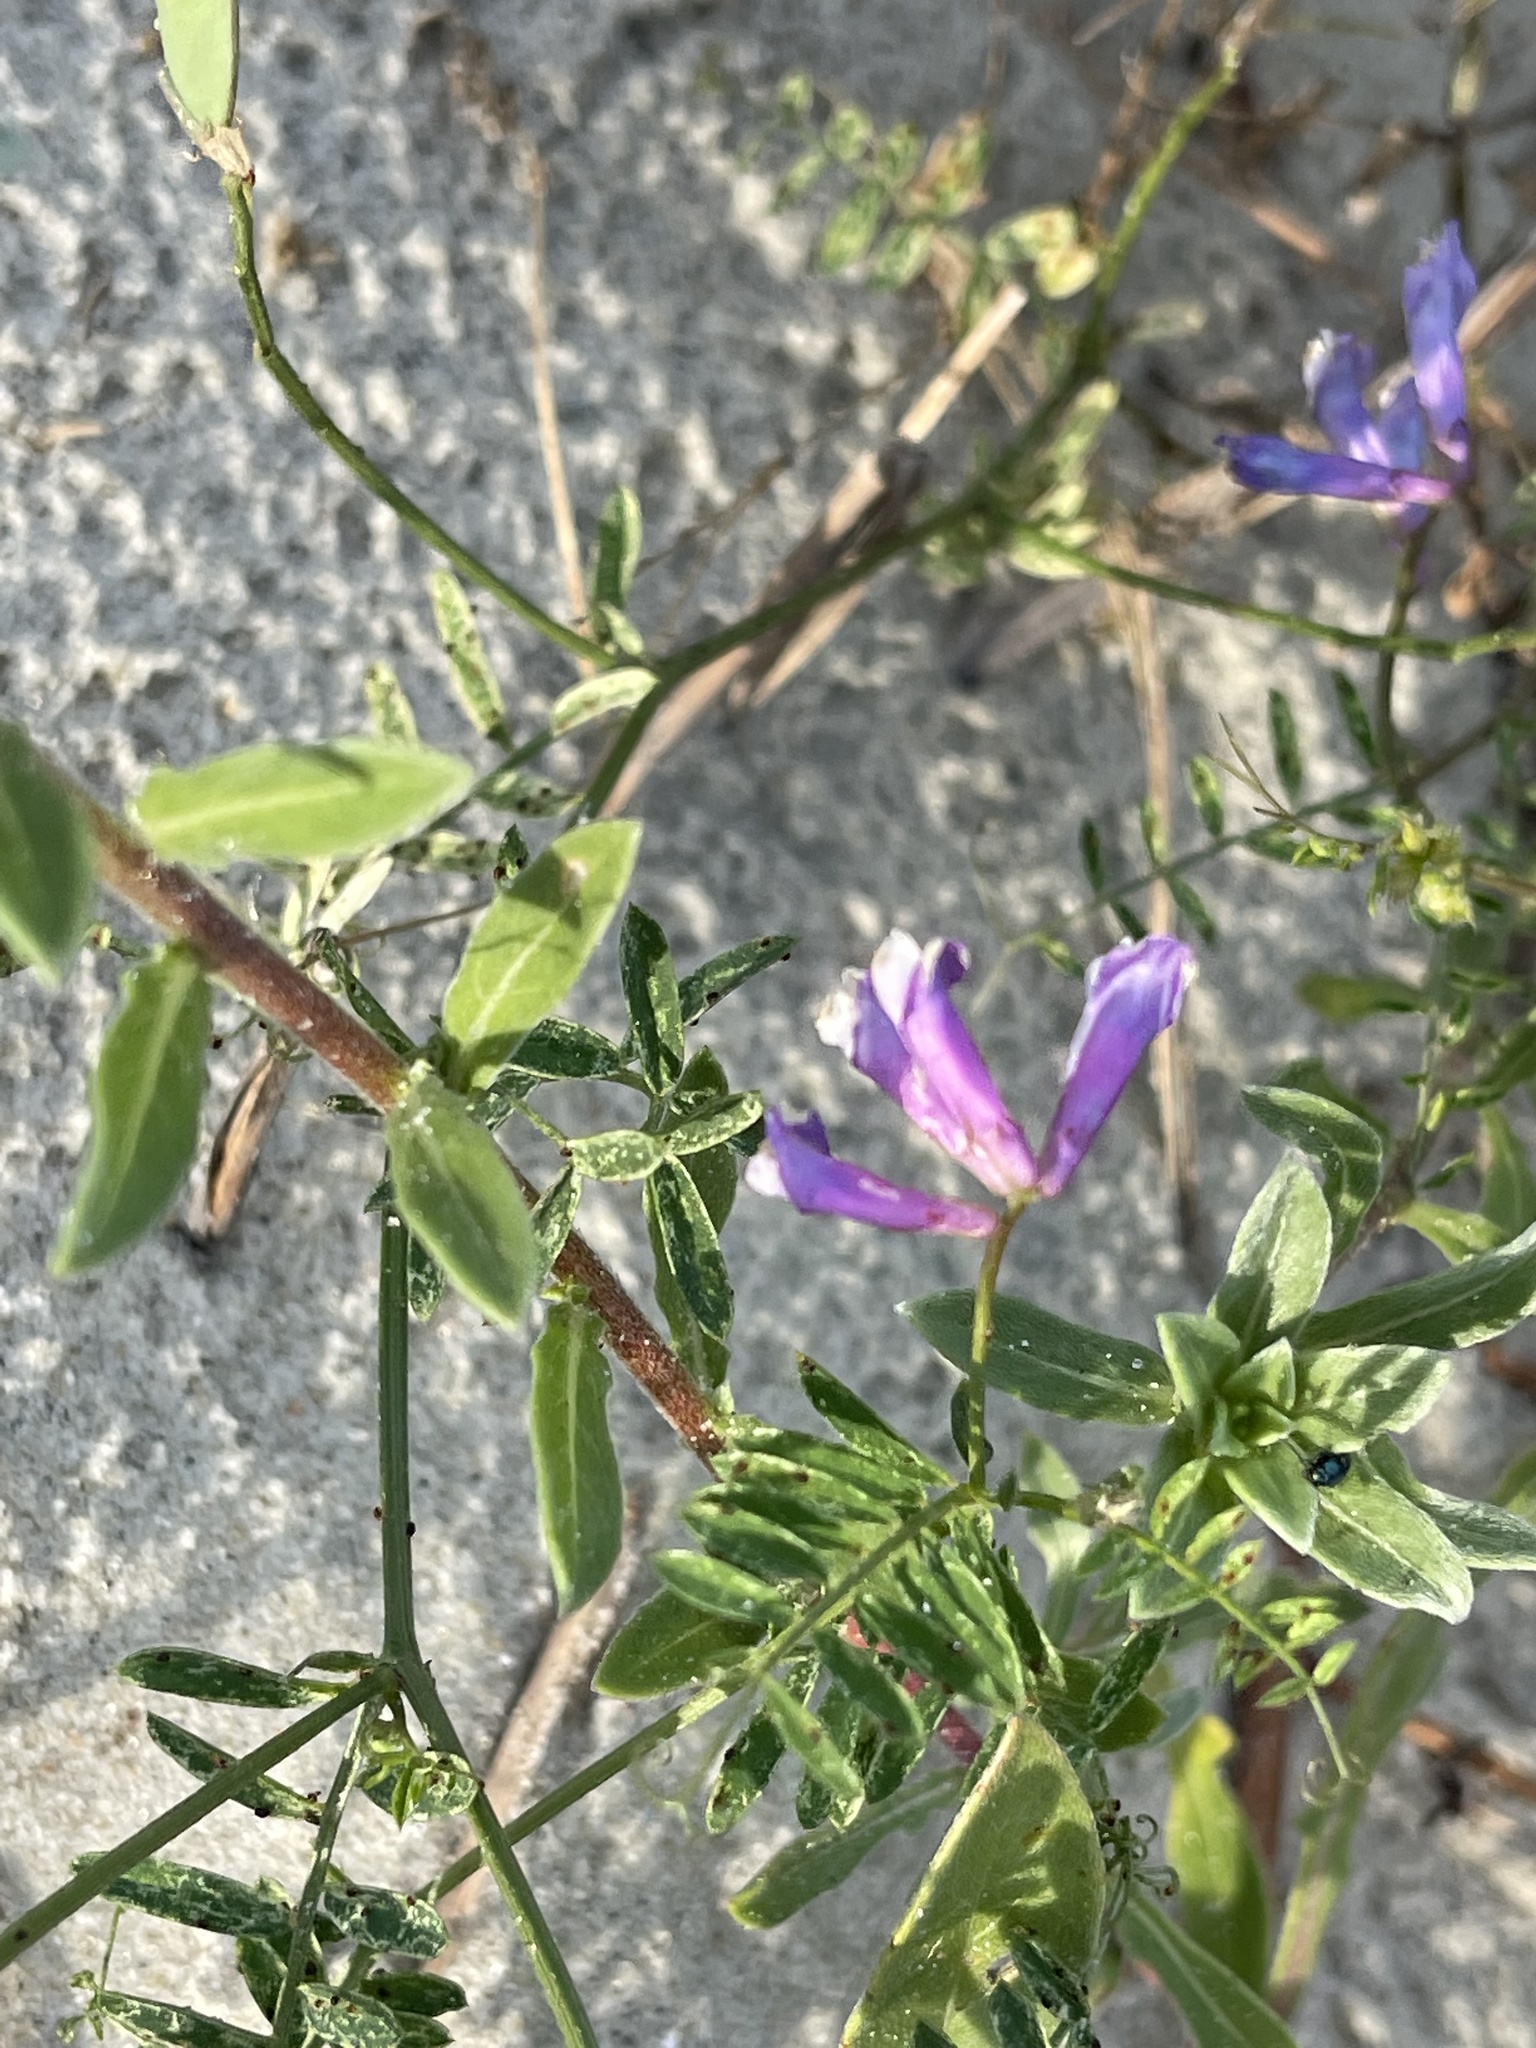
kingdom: Plantae
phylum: Tracheophyta
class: Magnoliopsida
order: Fabales
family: Fabaceae
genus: Vicia
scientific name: Vicia villosa
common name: Fodder vetch
